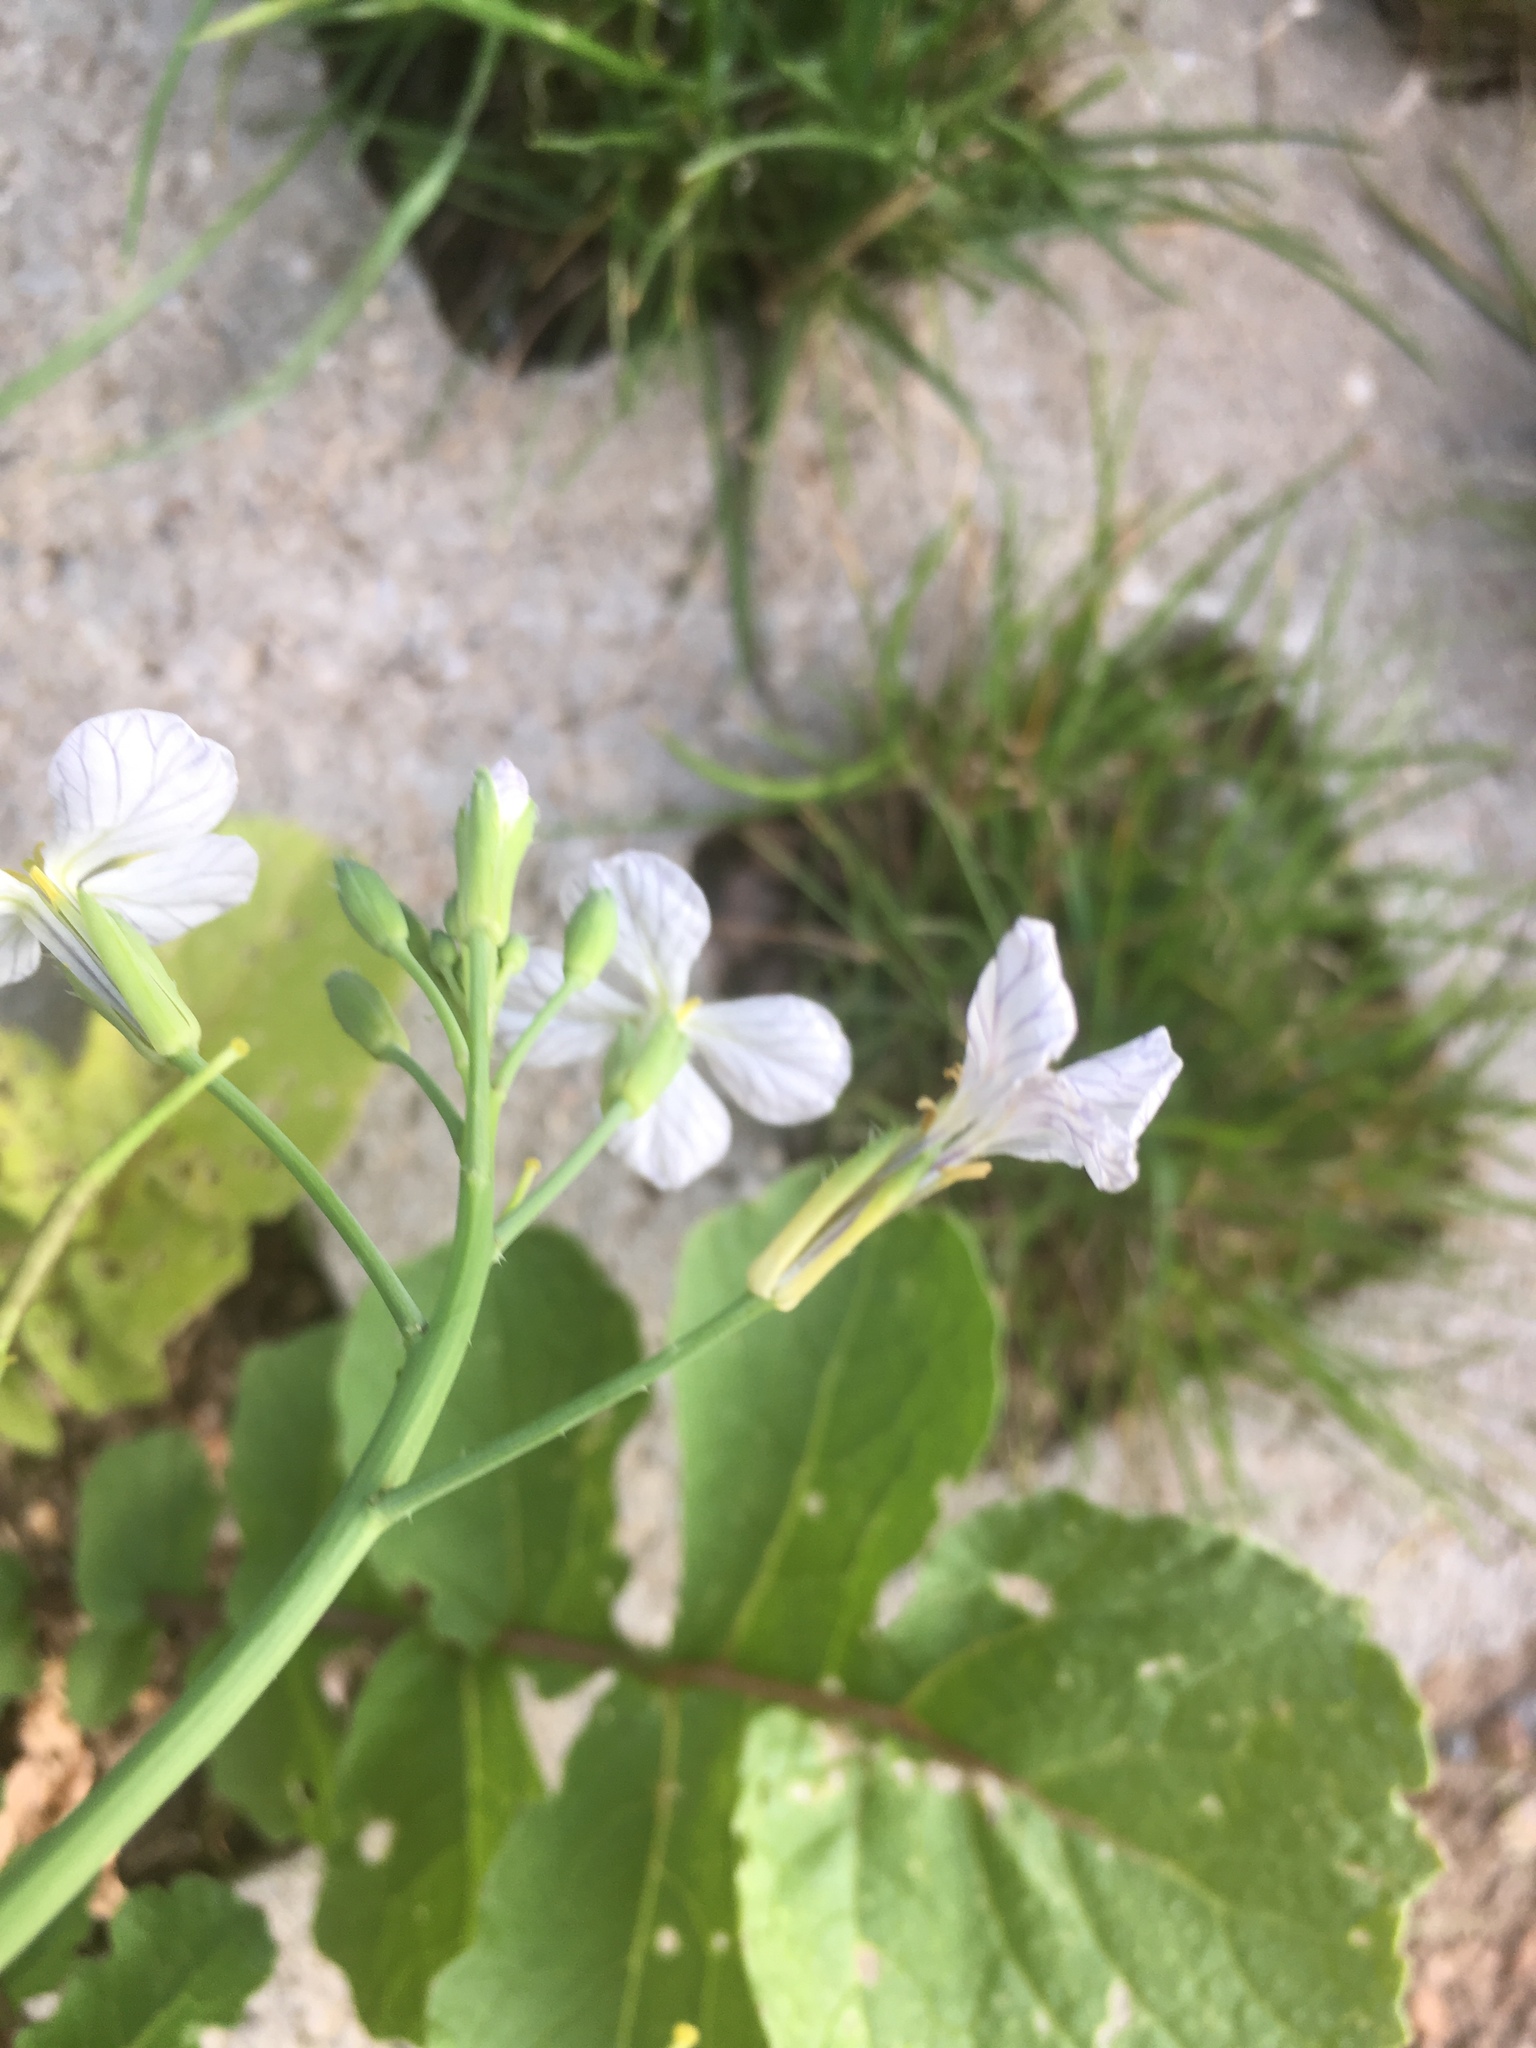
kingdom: Plantae
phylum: Tracheophyta
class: Magnoliopsida
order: Brassicales
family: Brassicaceae
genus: Raphanus
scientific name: Raphanus raphanistrum
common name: Wild radish
